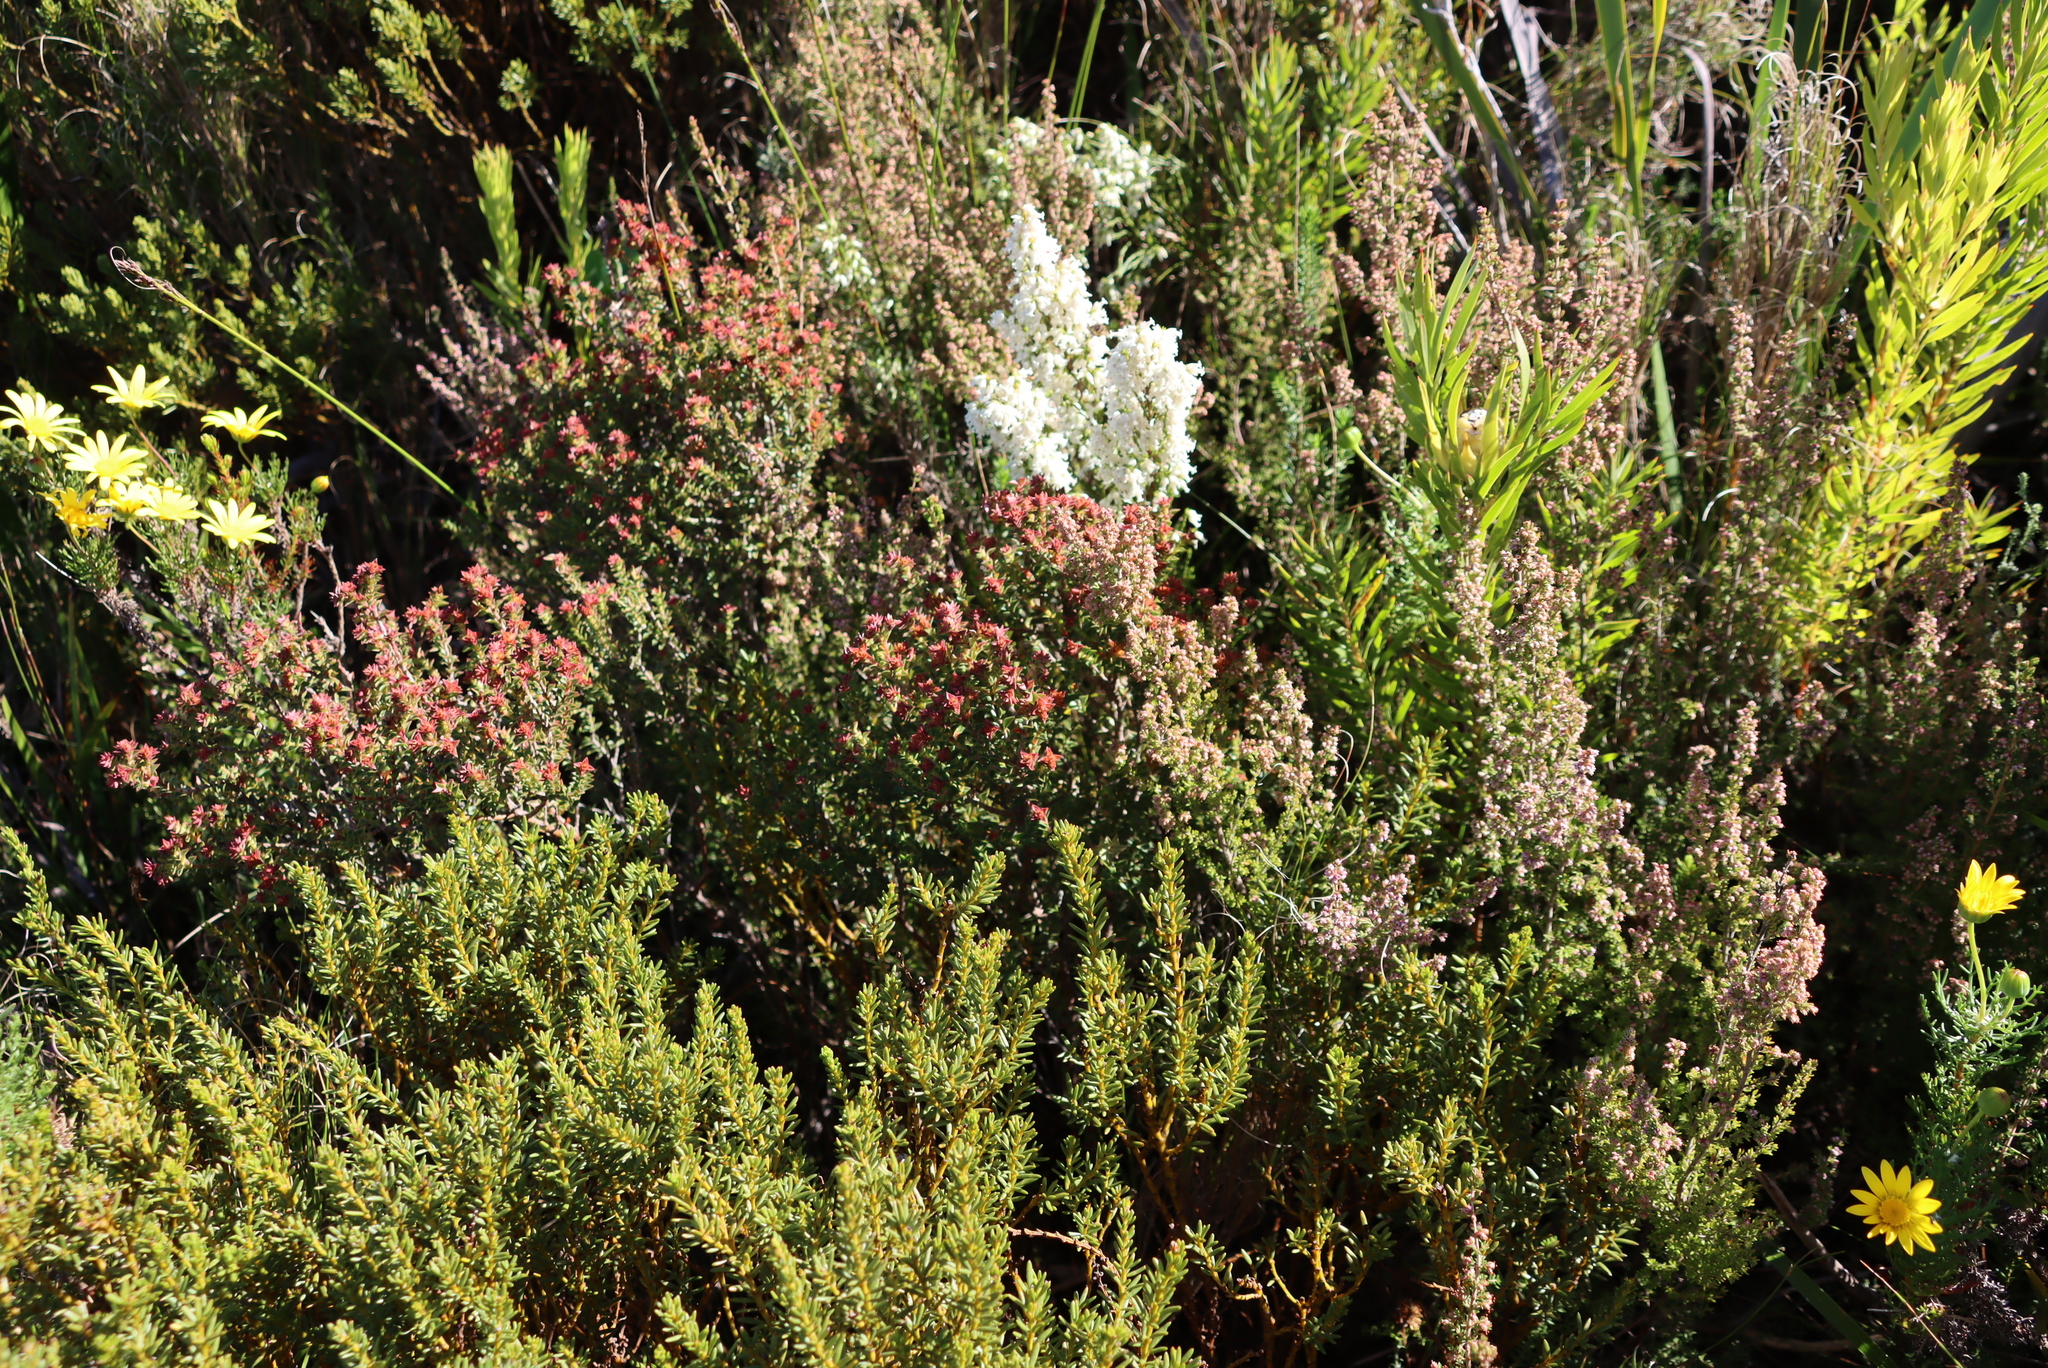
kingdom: Plantae
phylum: Tracheophyta
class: Magnoliopsida
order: Myrtales
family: Penaeaceae
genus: Penaea
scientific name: Penaea mucronata
